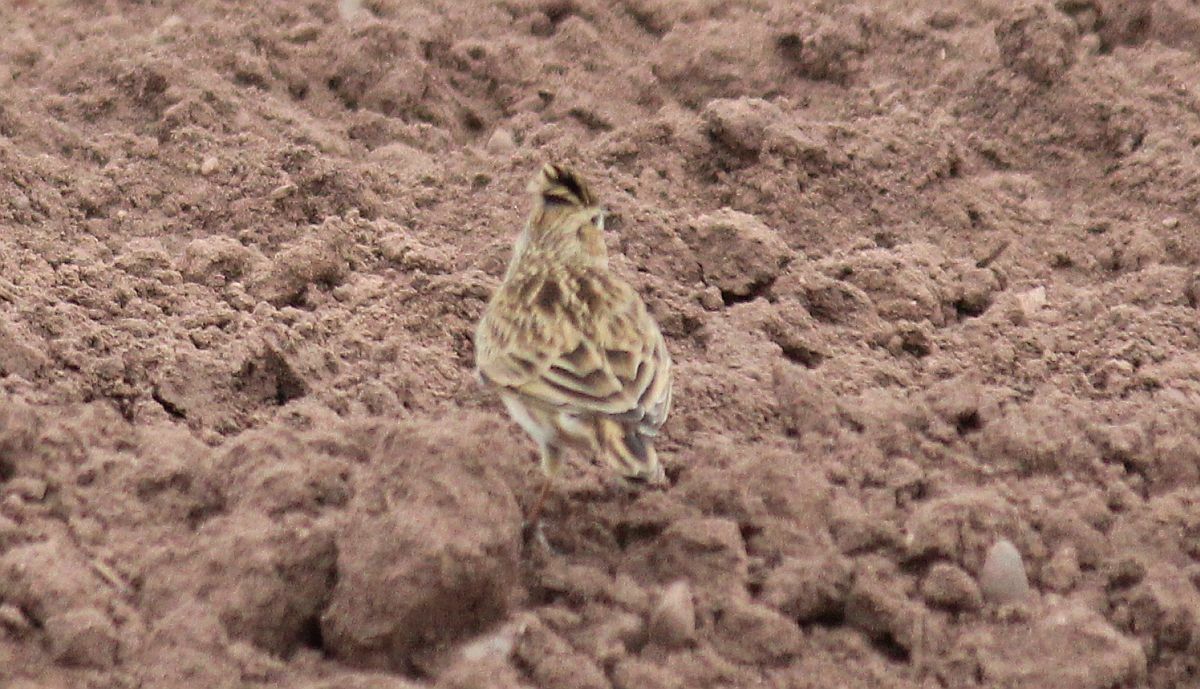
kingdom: Animalia
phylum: Chordata
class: Aves
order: Passeriformes
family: Alaudidae
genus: Alauda
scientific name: Alauda arvensis
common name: Eurasian skylark
